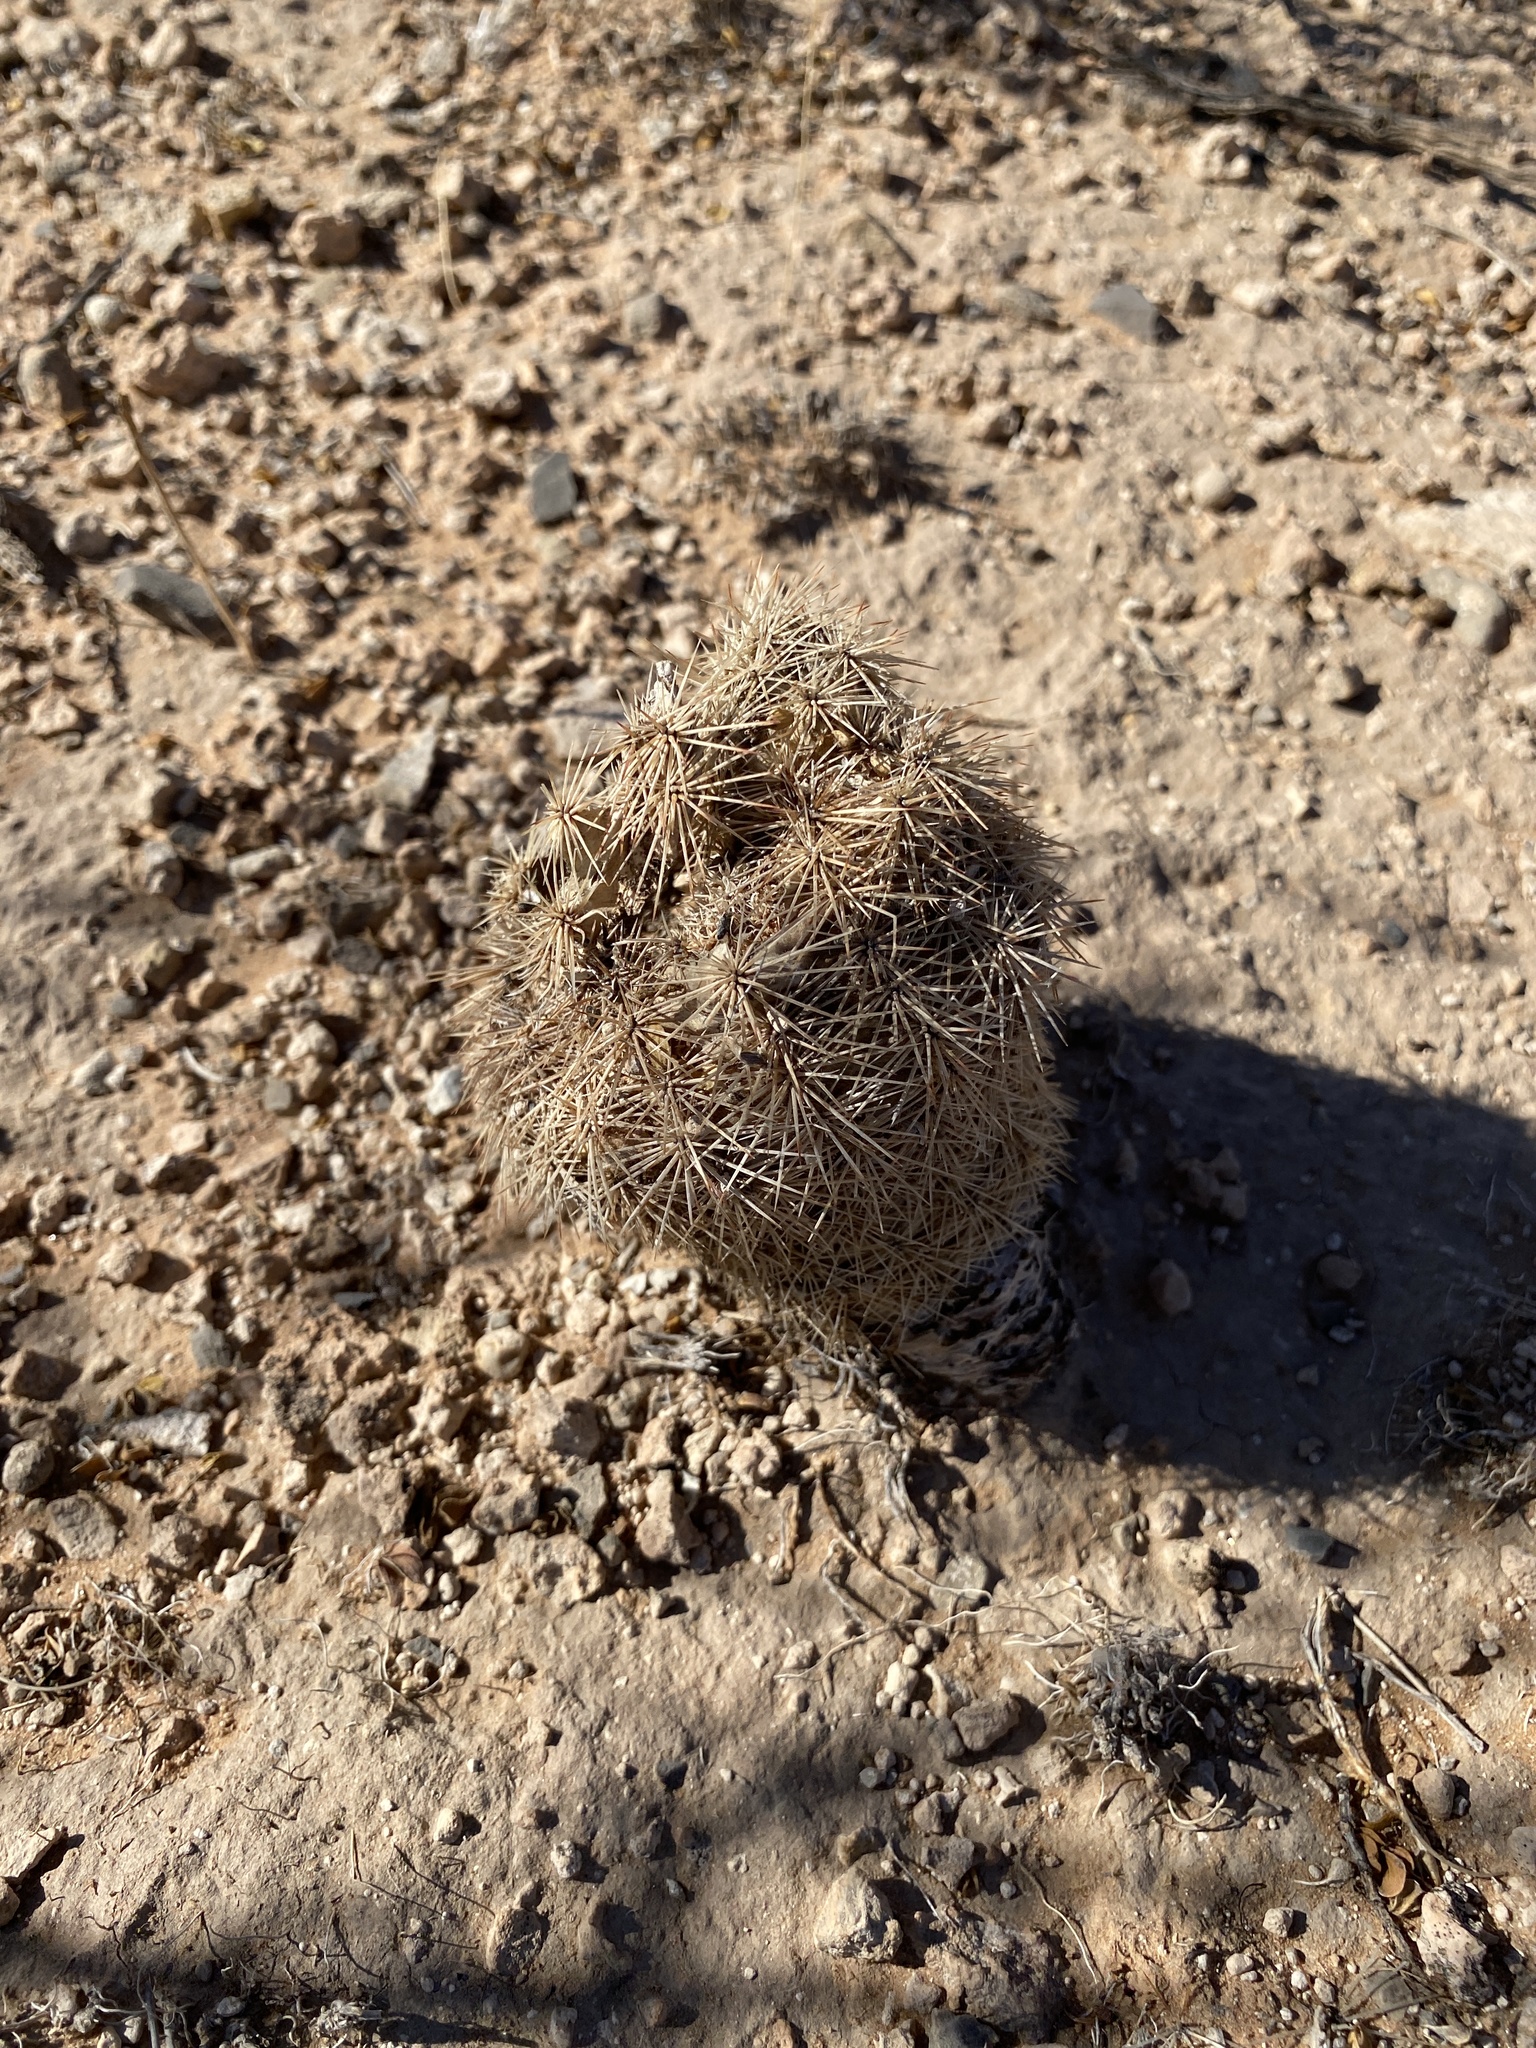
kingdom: Plantae
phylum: Tracheophyta
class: Magnoliopsida
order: Caryophyllales
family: Cactaceae
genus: Echinocereus
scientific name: Echinocereus dasyacanthus
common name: Spiny hedgehog cactus
